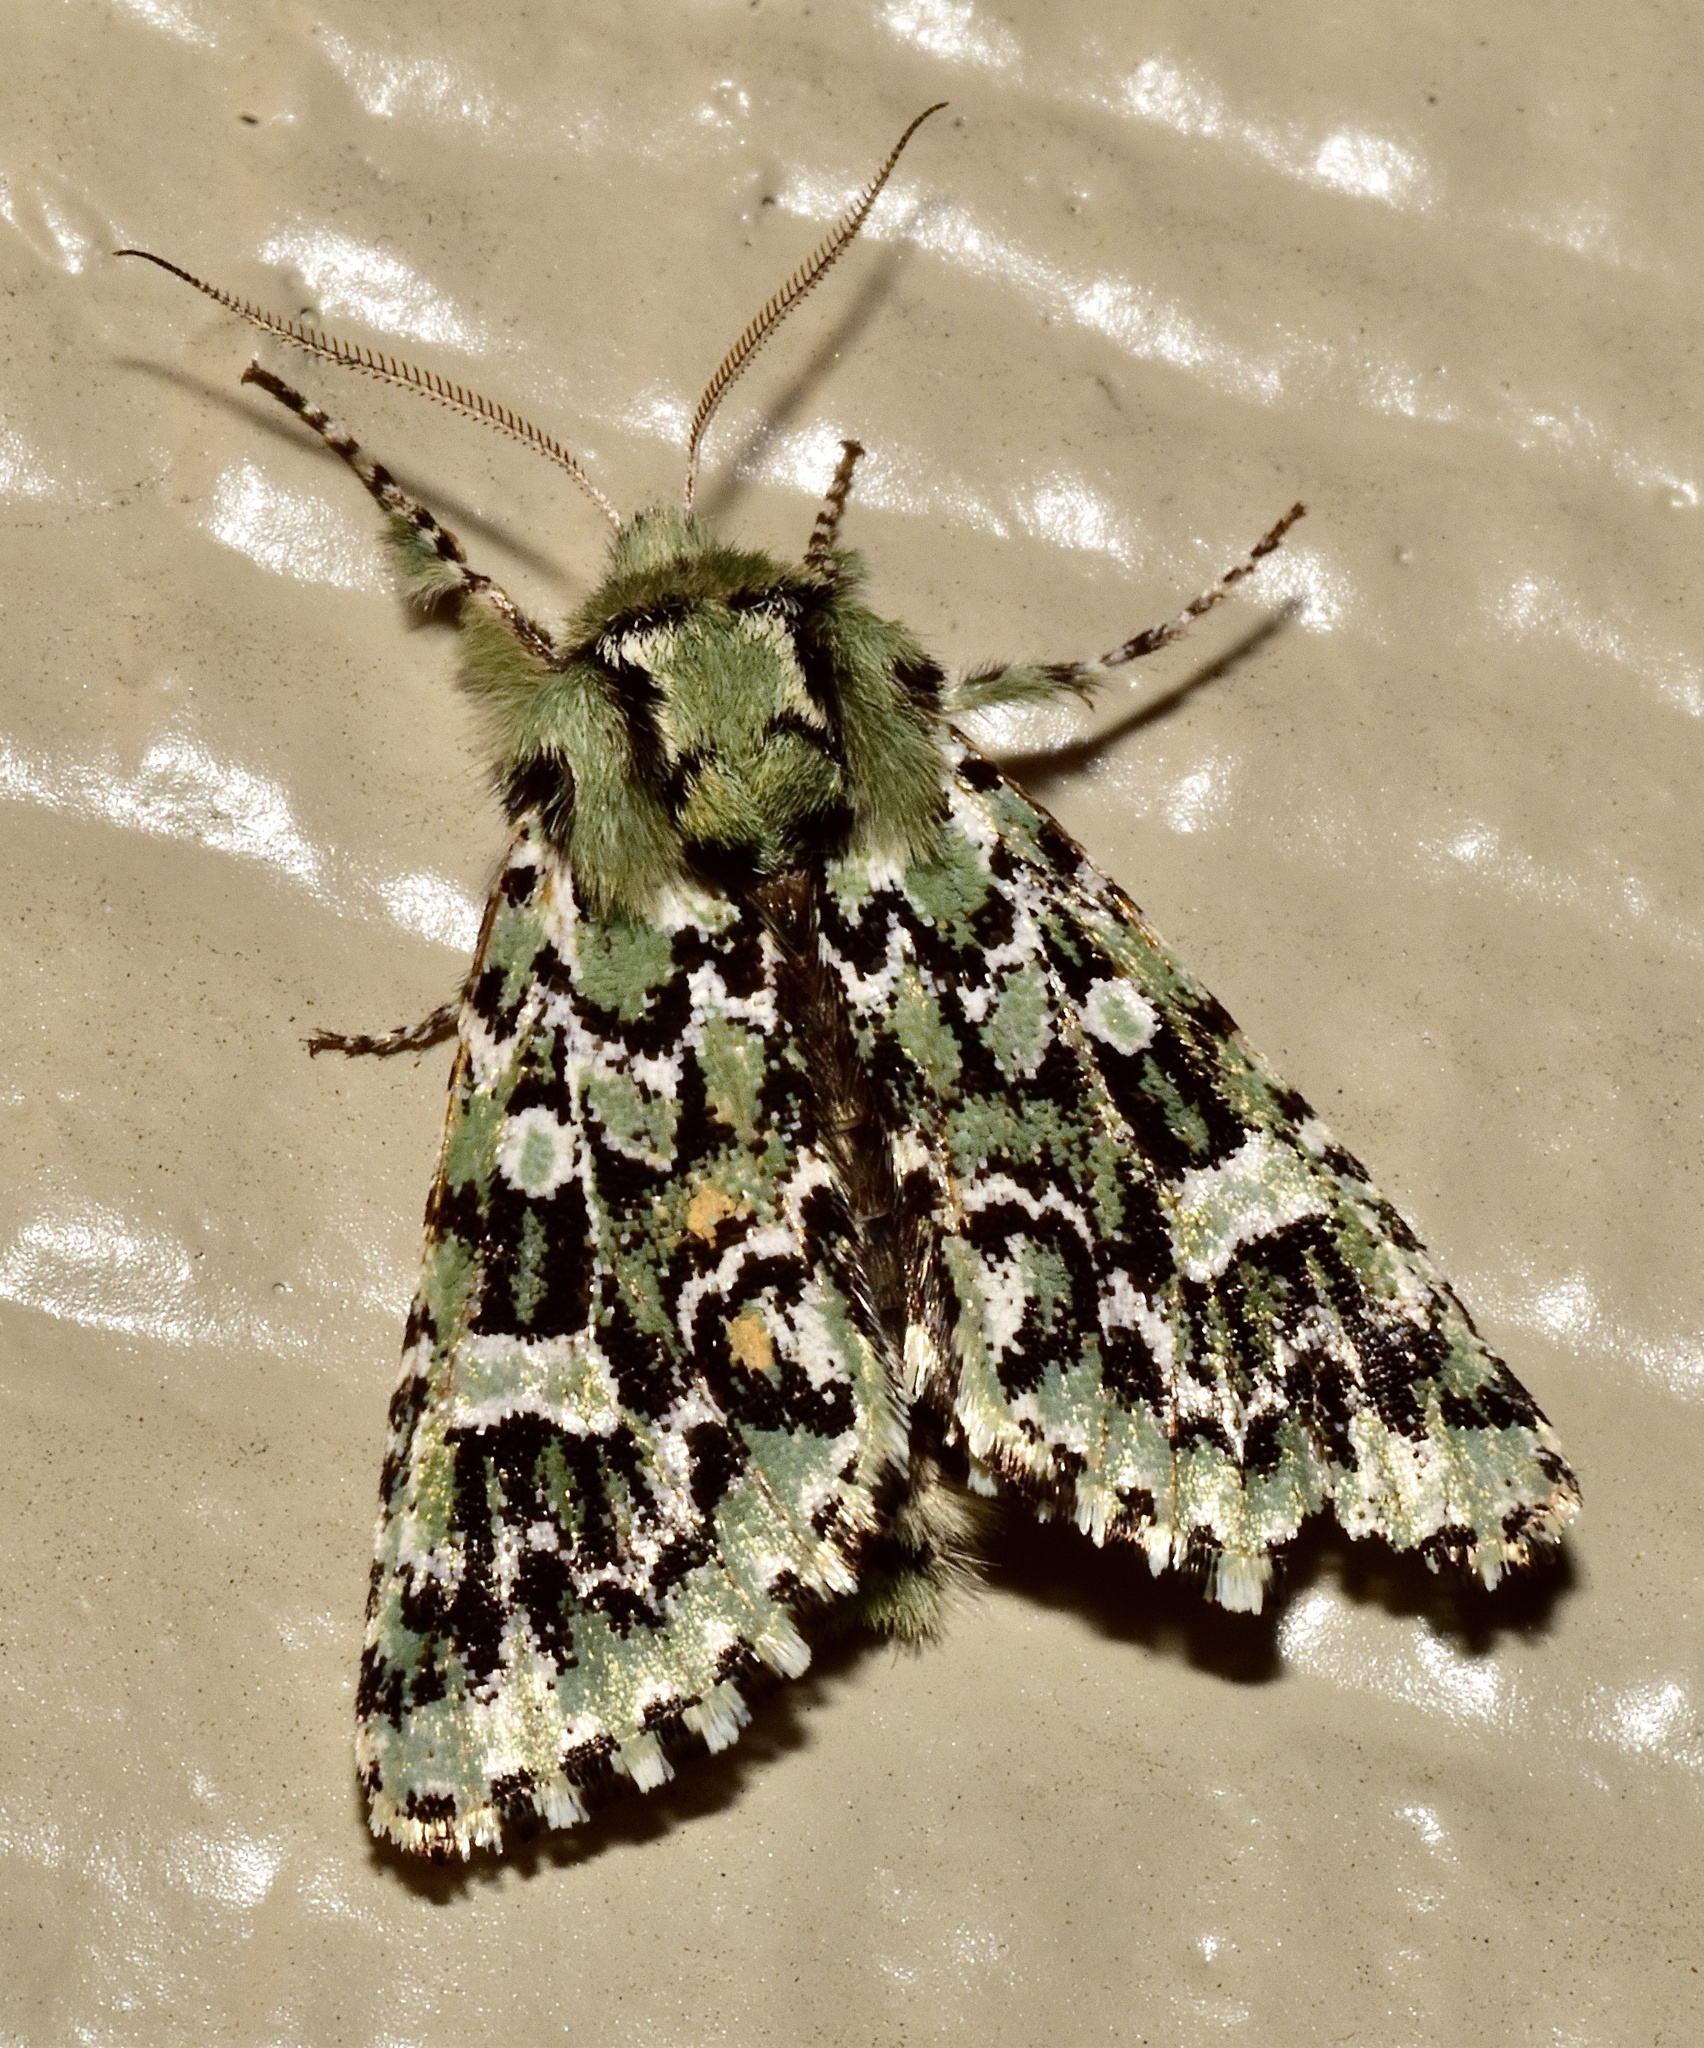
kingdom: Animalia
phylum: Arthropoda
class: Insecta
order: Lepidoptera
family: Noctuidae
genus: Feralia
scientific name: Feralia jocosa
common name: Joker
